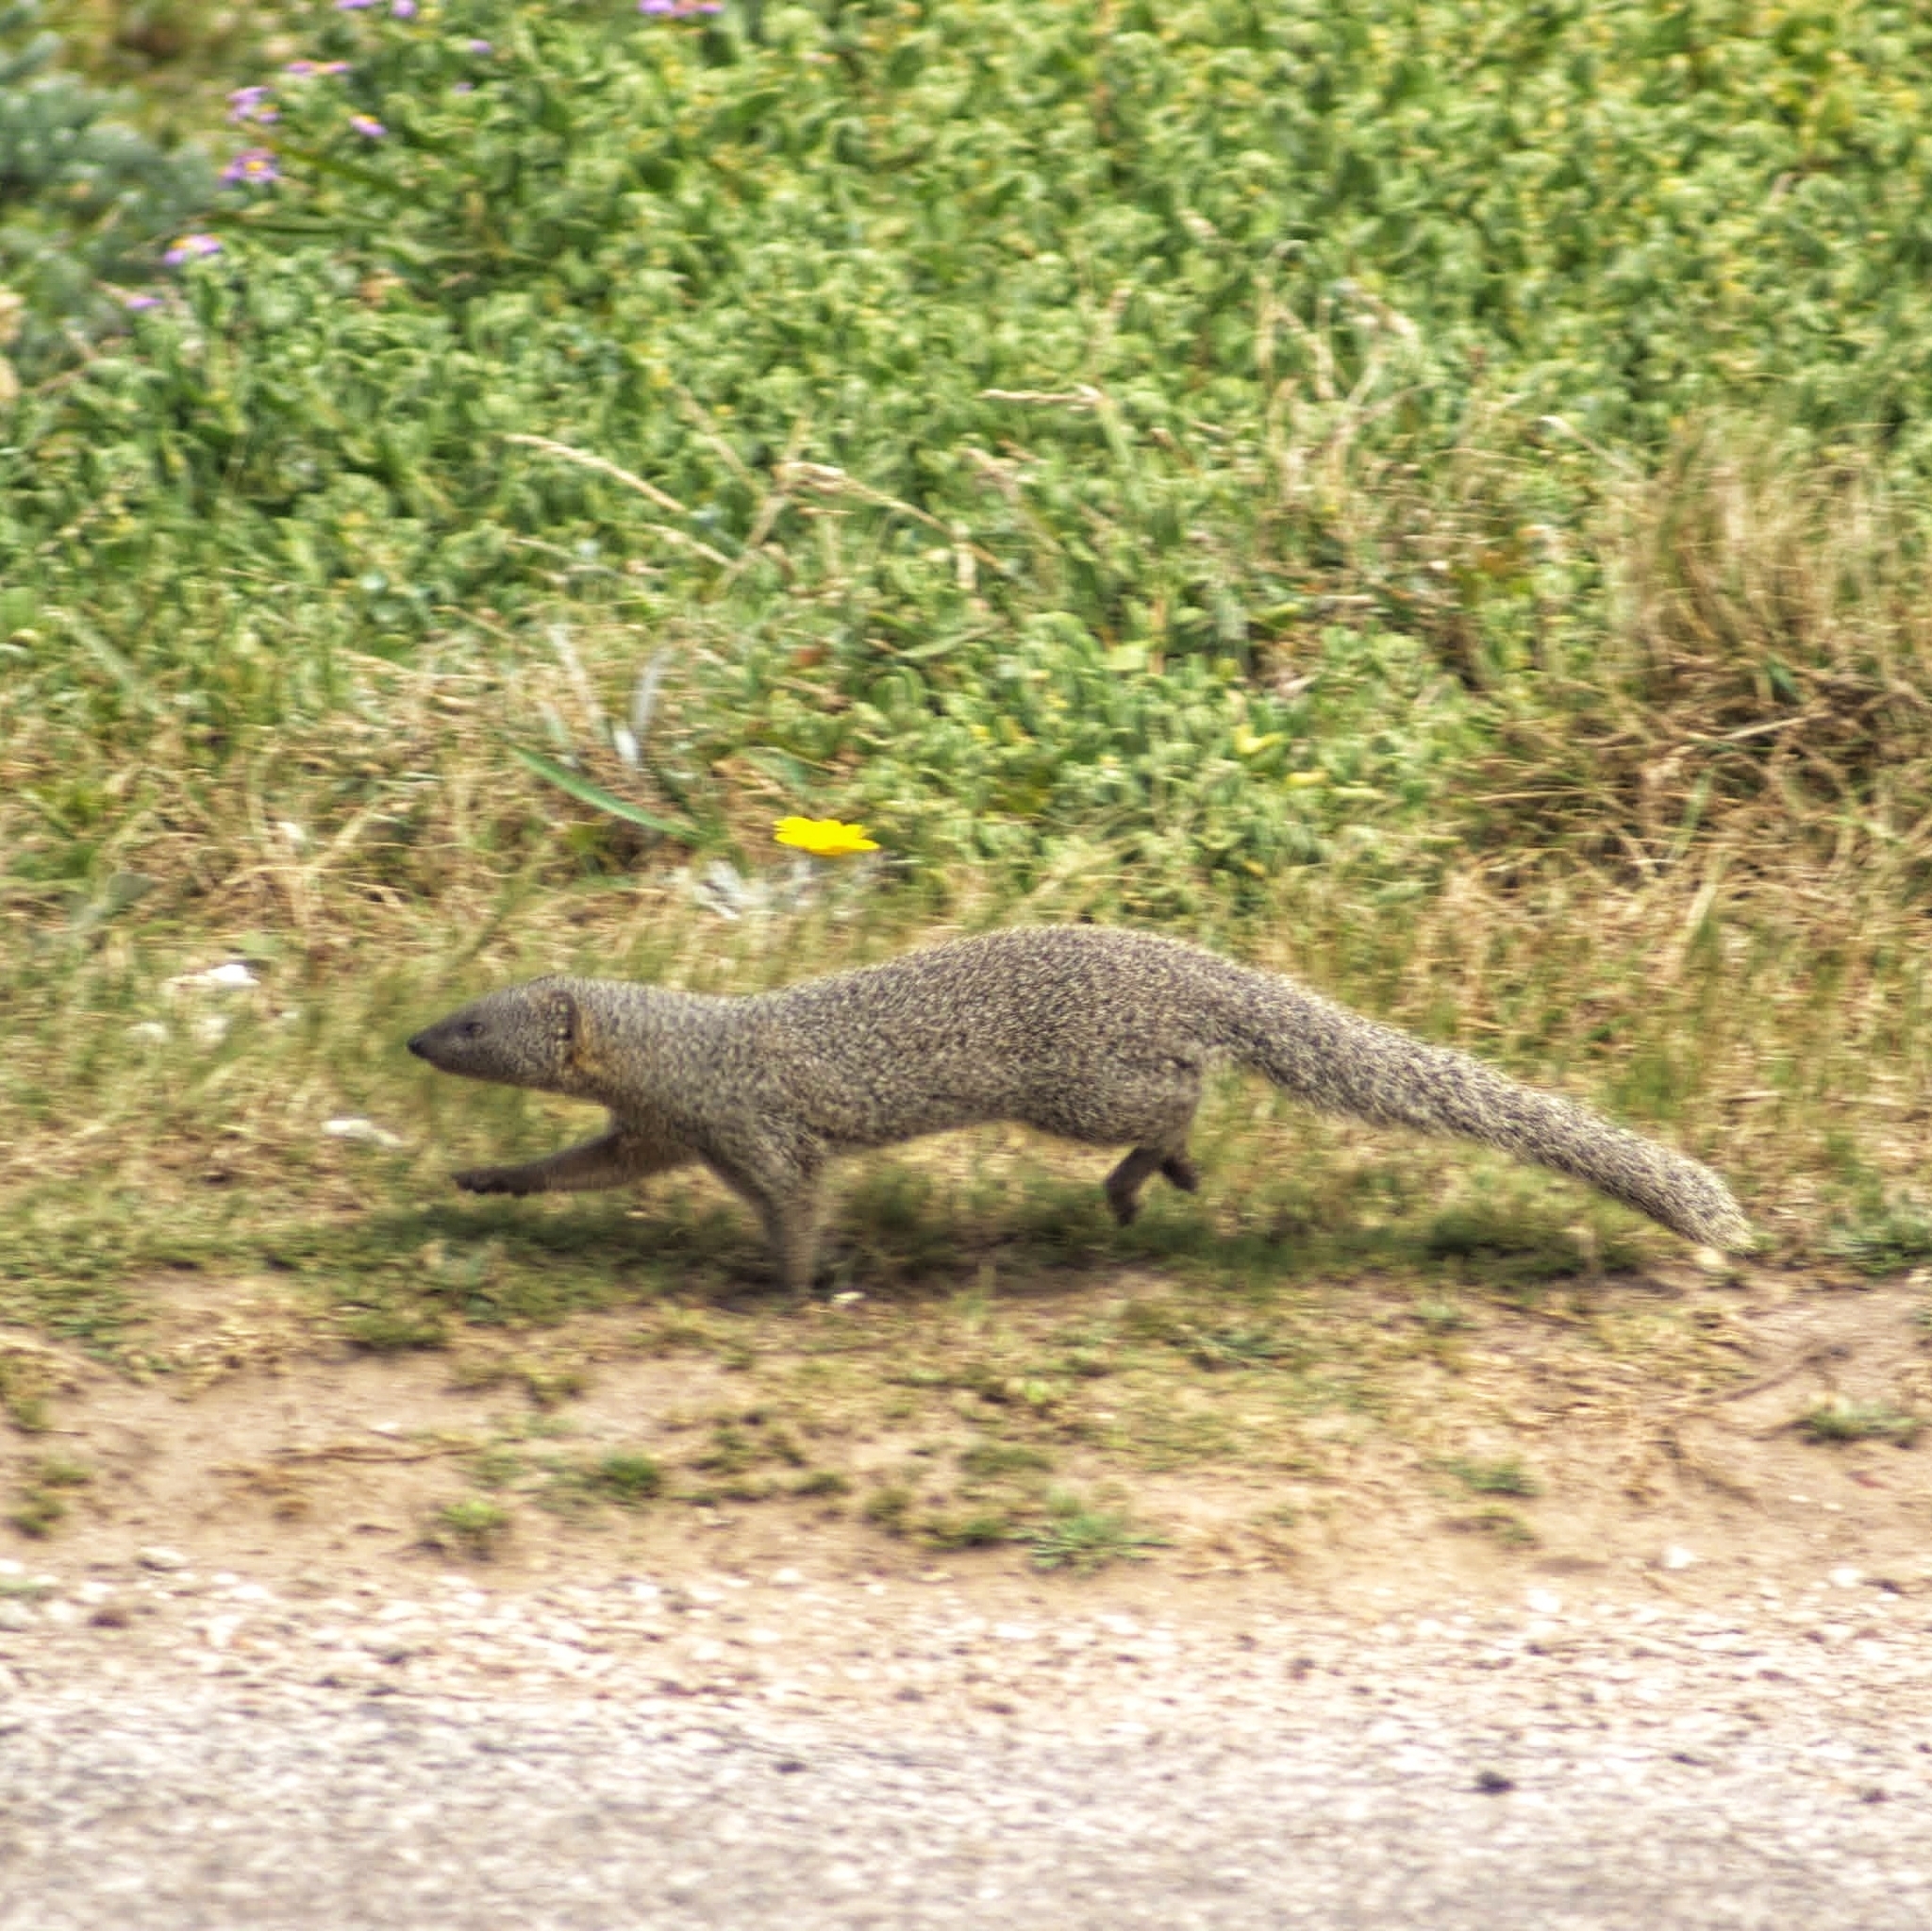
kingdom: Animalia
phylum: Chordata
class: Mammalia
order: Carnivora
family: Herpestidae
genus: Galerella
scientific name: Galerella pulverulenta
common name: Cape gray mongoose
